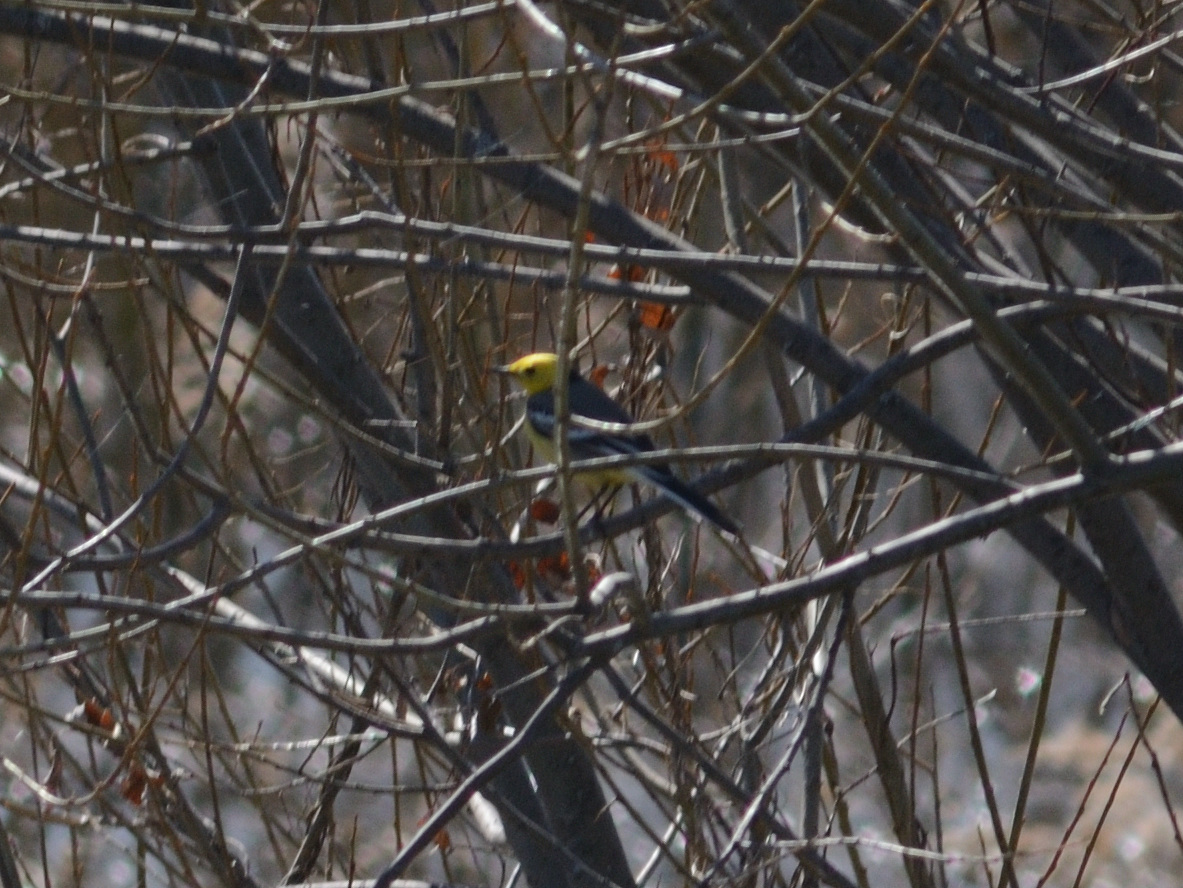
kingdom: Animalia
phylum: Chordata
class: Aves
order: Passeriformes
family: Motacillidae
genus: Motacilla
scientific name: Motacilla citreola
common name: Citrine wagtail
